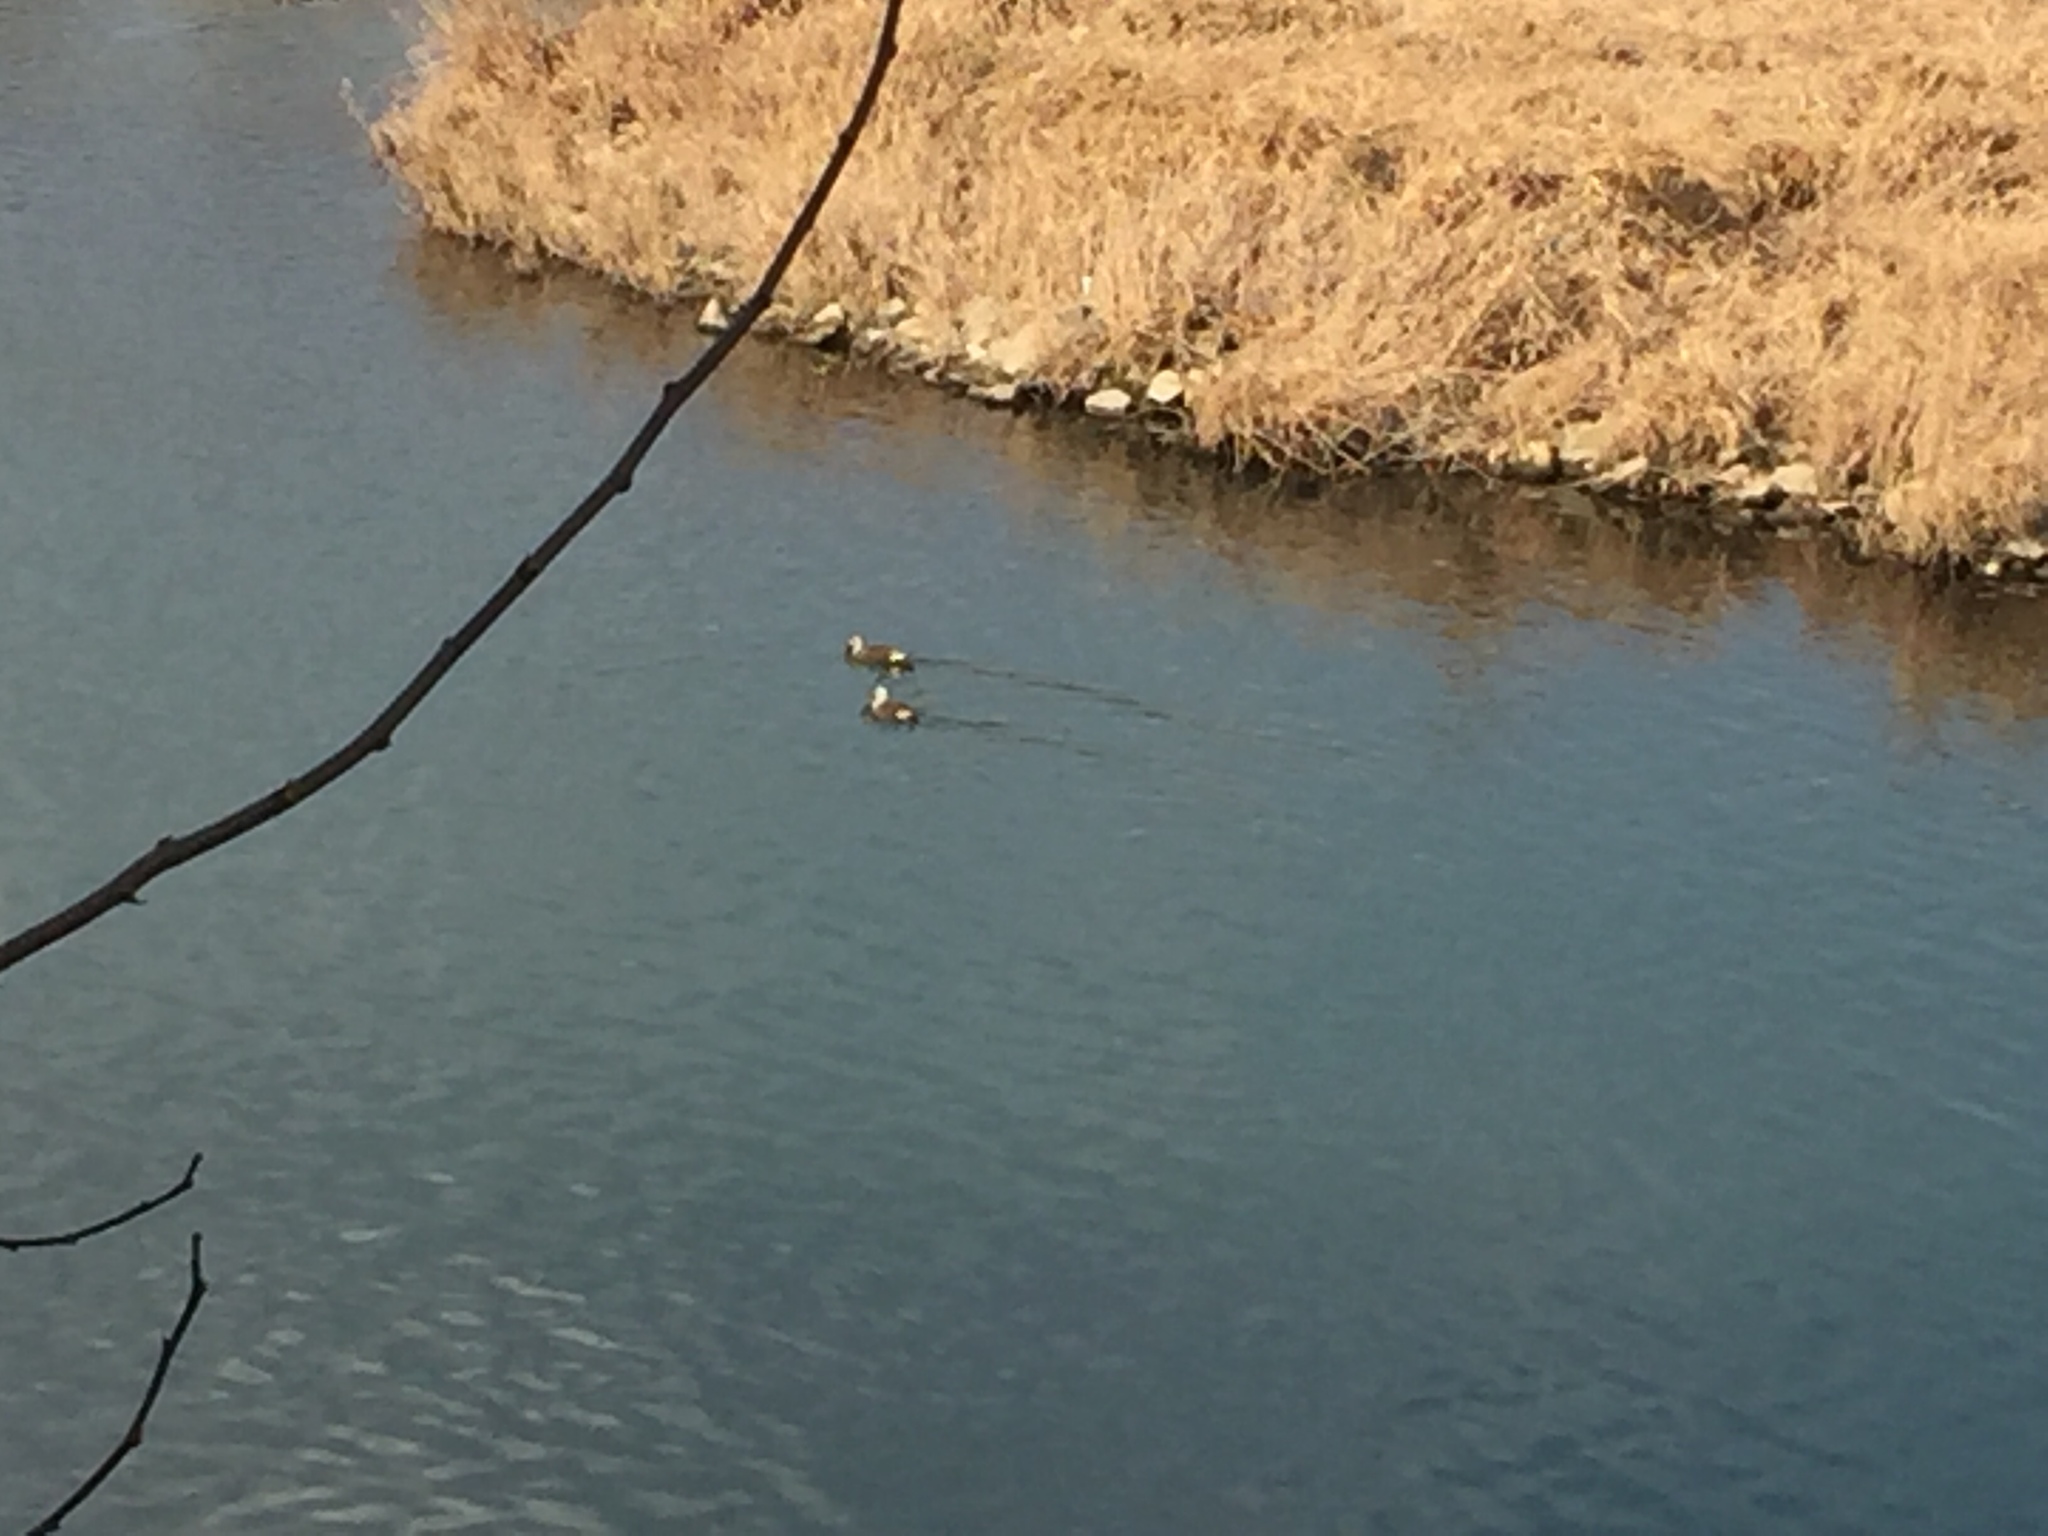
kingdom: Animalia
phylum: Chordata
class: Aves
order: Anseriformes
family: Anatidae
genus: Anas
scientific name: Anas zonorhyncha
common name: Eastern spot-billed duck
